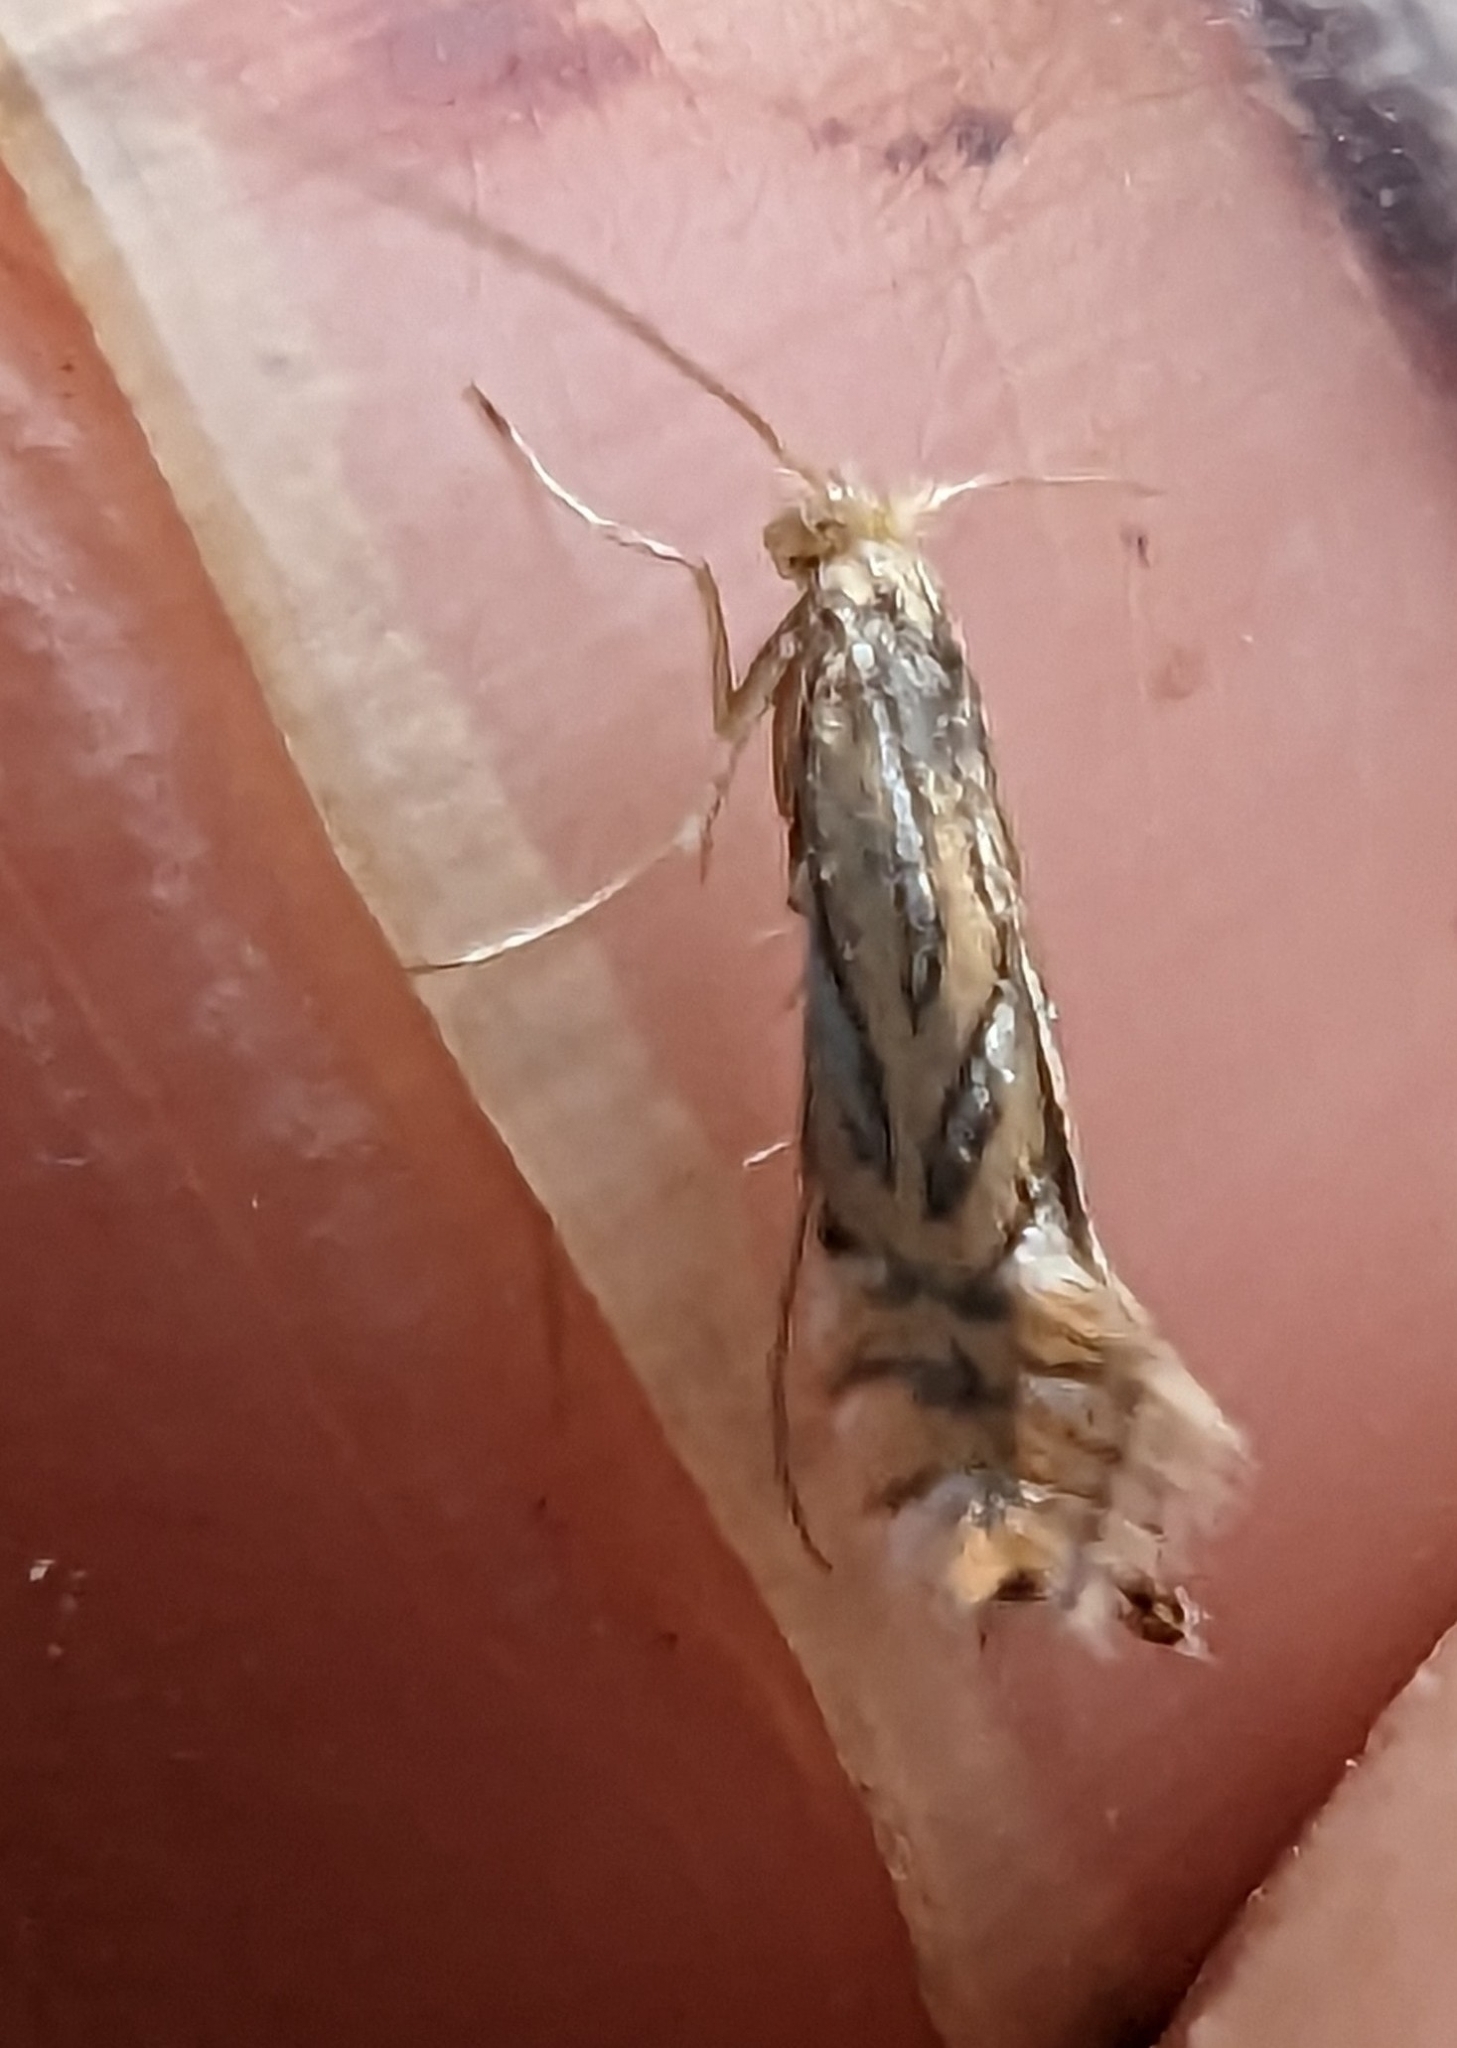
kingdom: Animalia
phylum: Arthropoda
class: Insecta
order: Lepidoptera
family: Gracillariidae
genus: Phyllonorycter
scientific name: Phyllonorycter platani
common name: London midget
